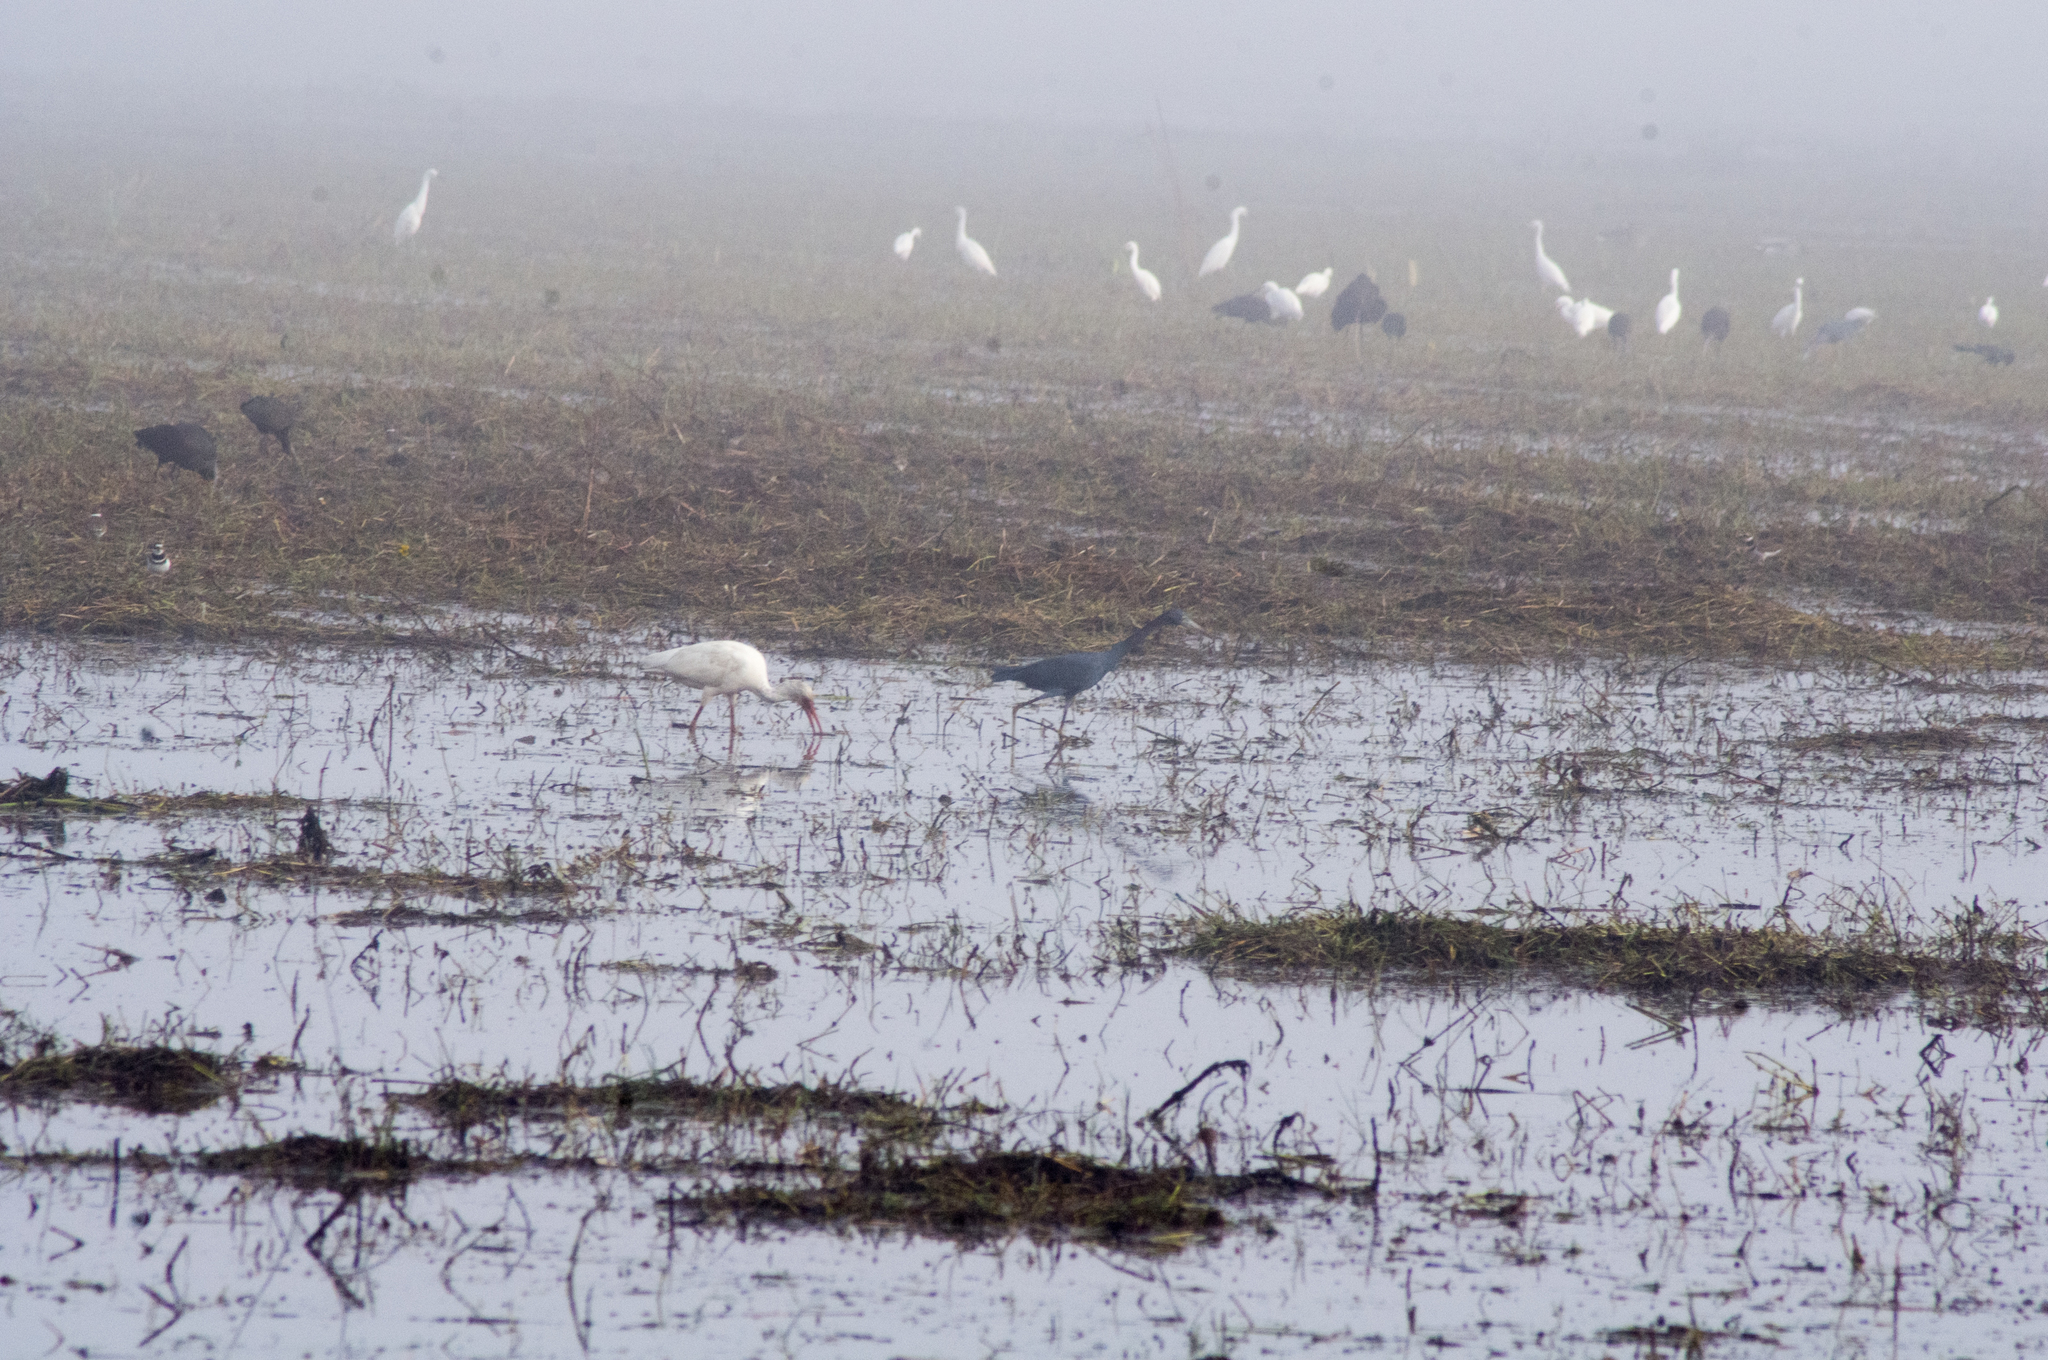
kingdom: Animalia
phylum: Chordata
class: Aves
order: Pelecaniformes
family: Ardeidae
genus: Egretta
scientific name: Egretta caerulea
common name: Little blue heron
